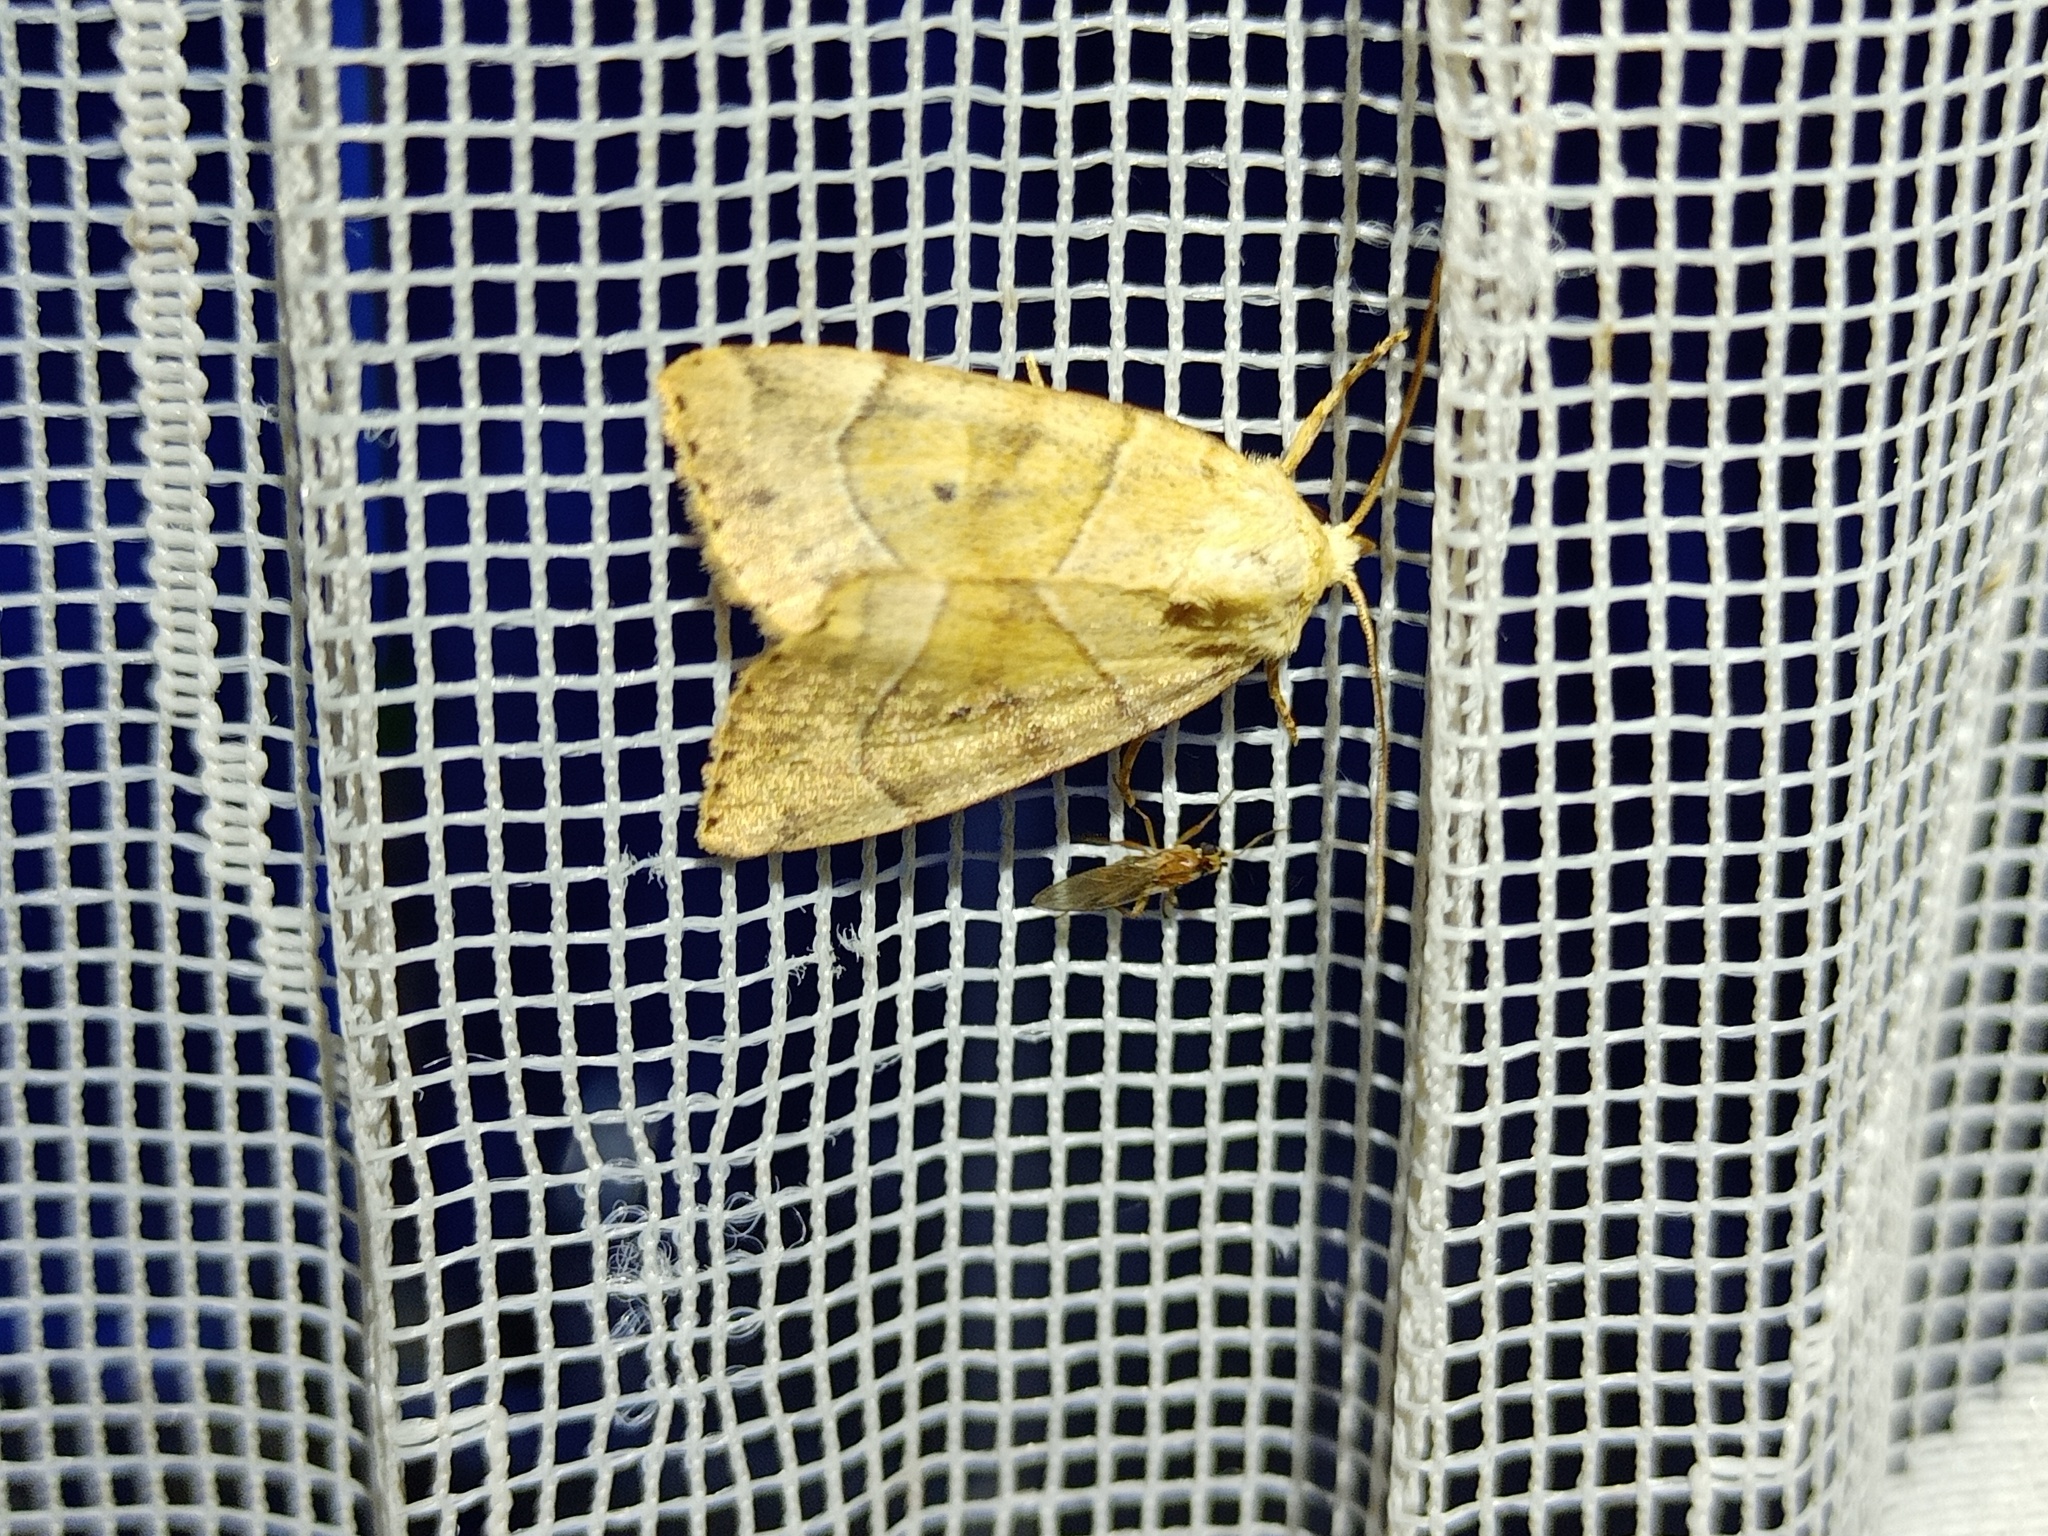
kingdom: Animalia
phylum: Arthropoda
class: Insecta
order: Lepidoptera
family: Noctuidae
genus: Cosmia
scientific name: Cosmia trapezina
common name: Dun-bar
